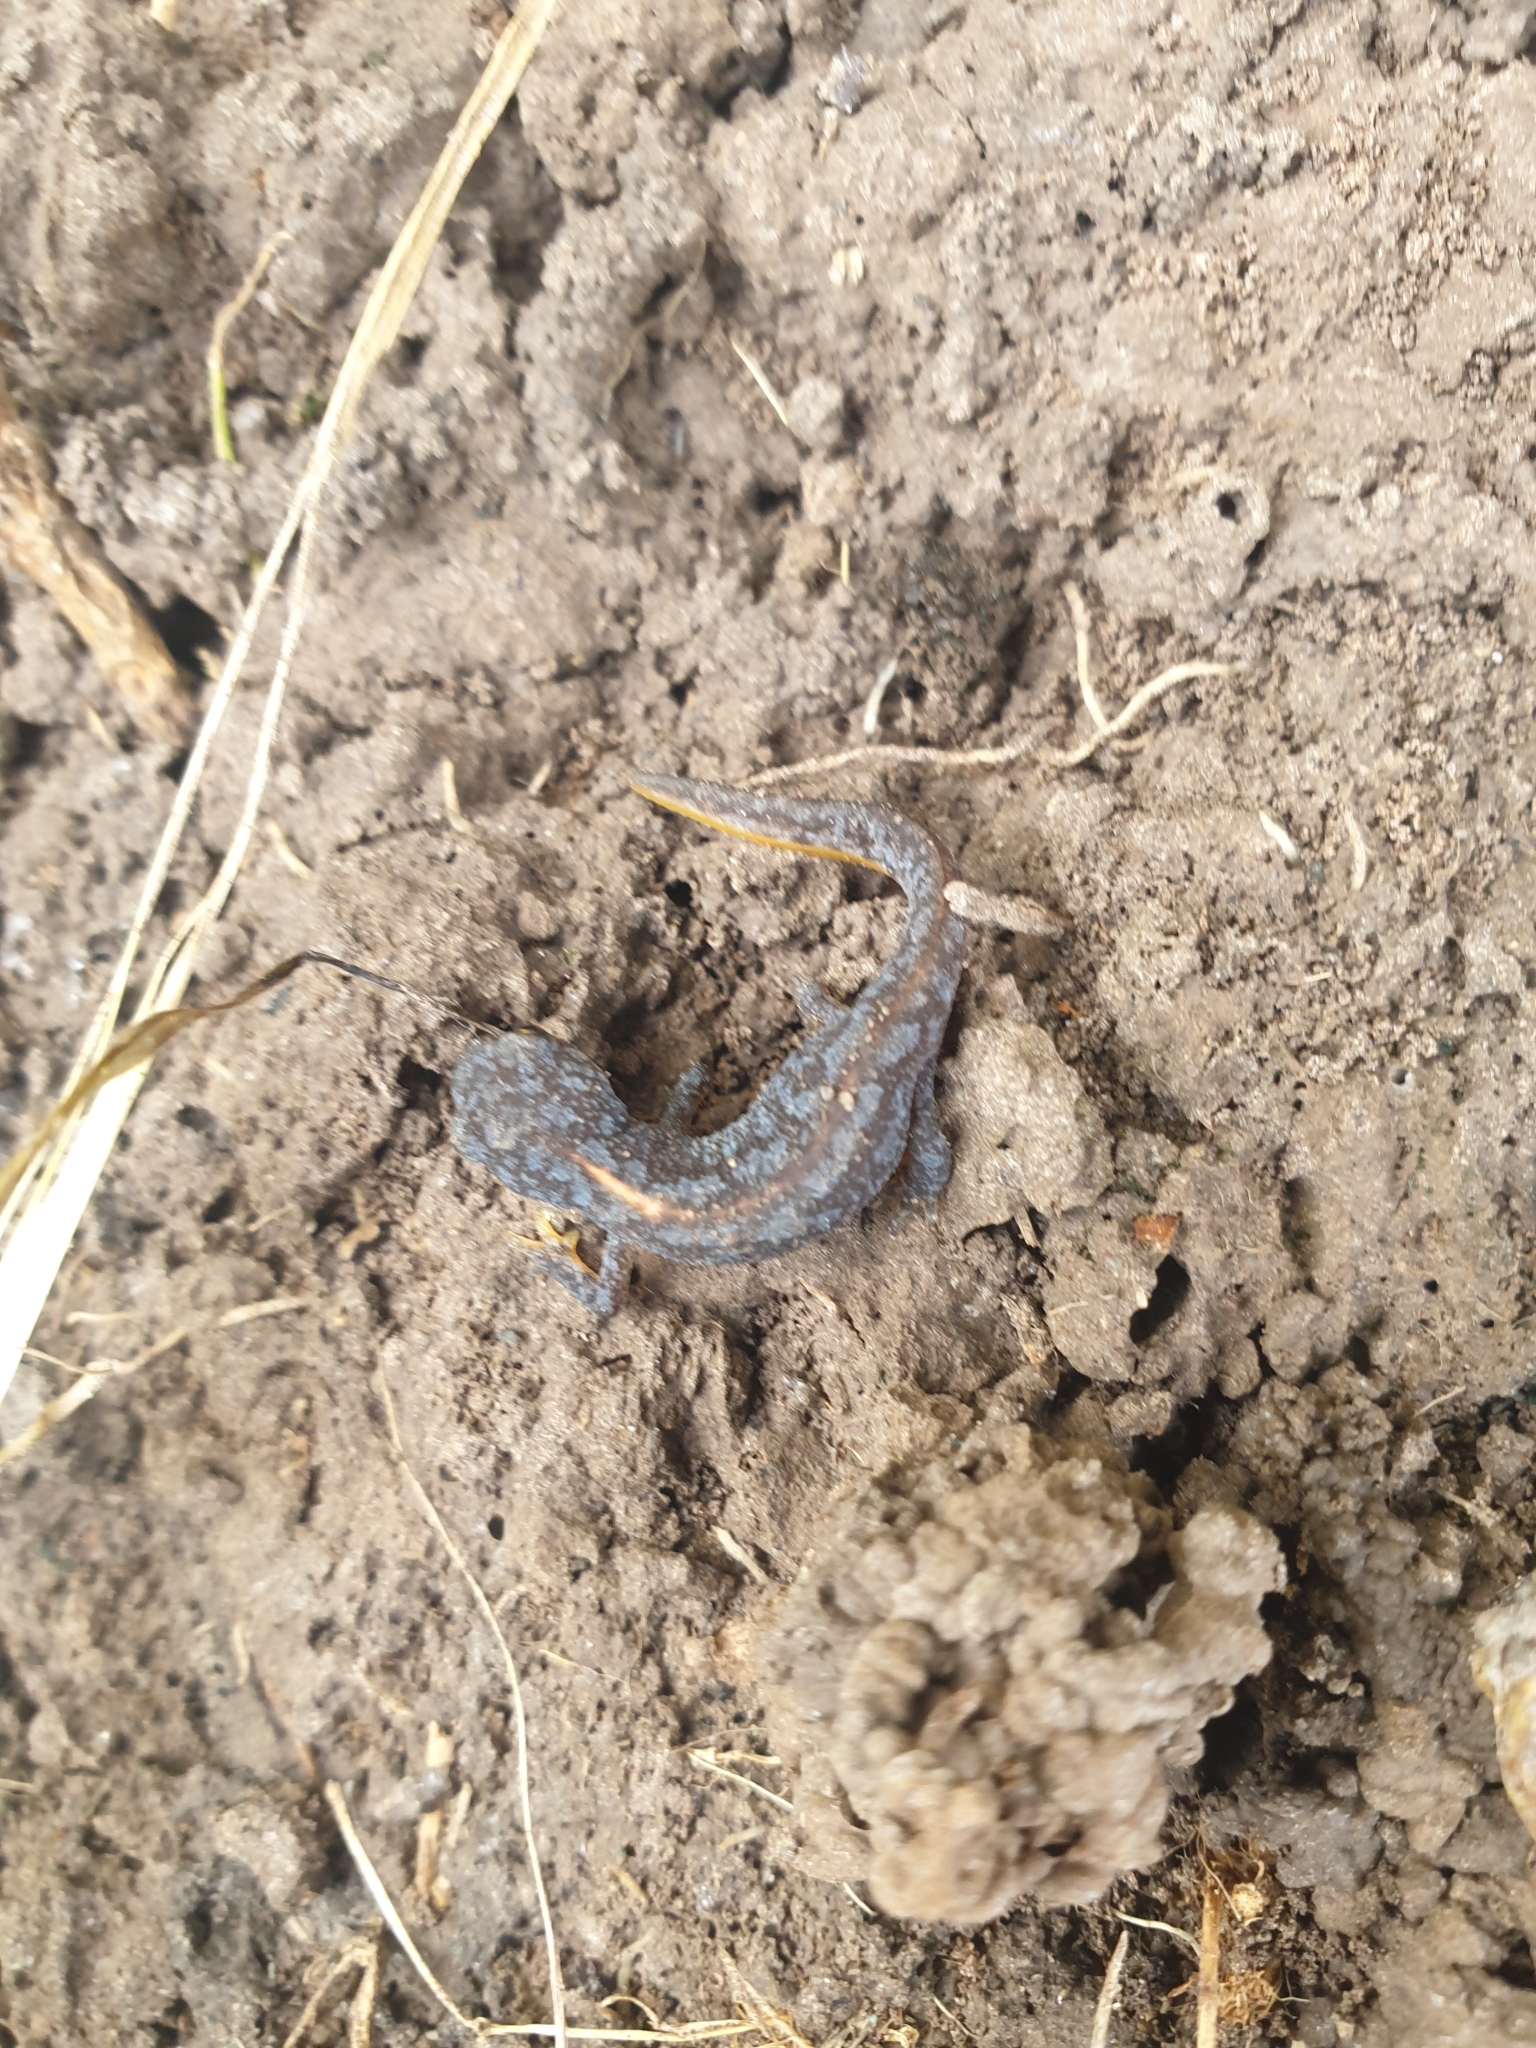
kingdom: Animalia
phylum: Chordata
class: Amphibia
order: Caudata
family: Salamandridae
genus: Ichthyosaura
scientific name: Ichthyosaura alpestris
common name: Alpine newt
